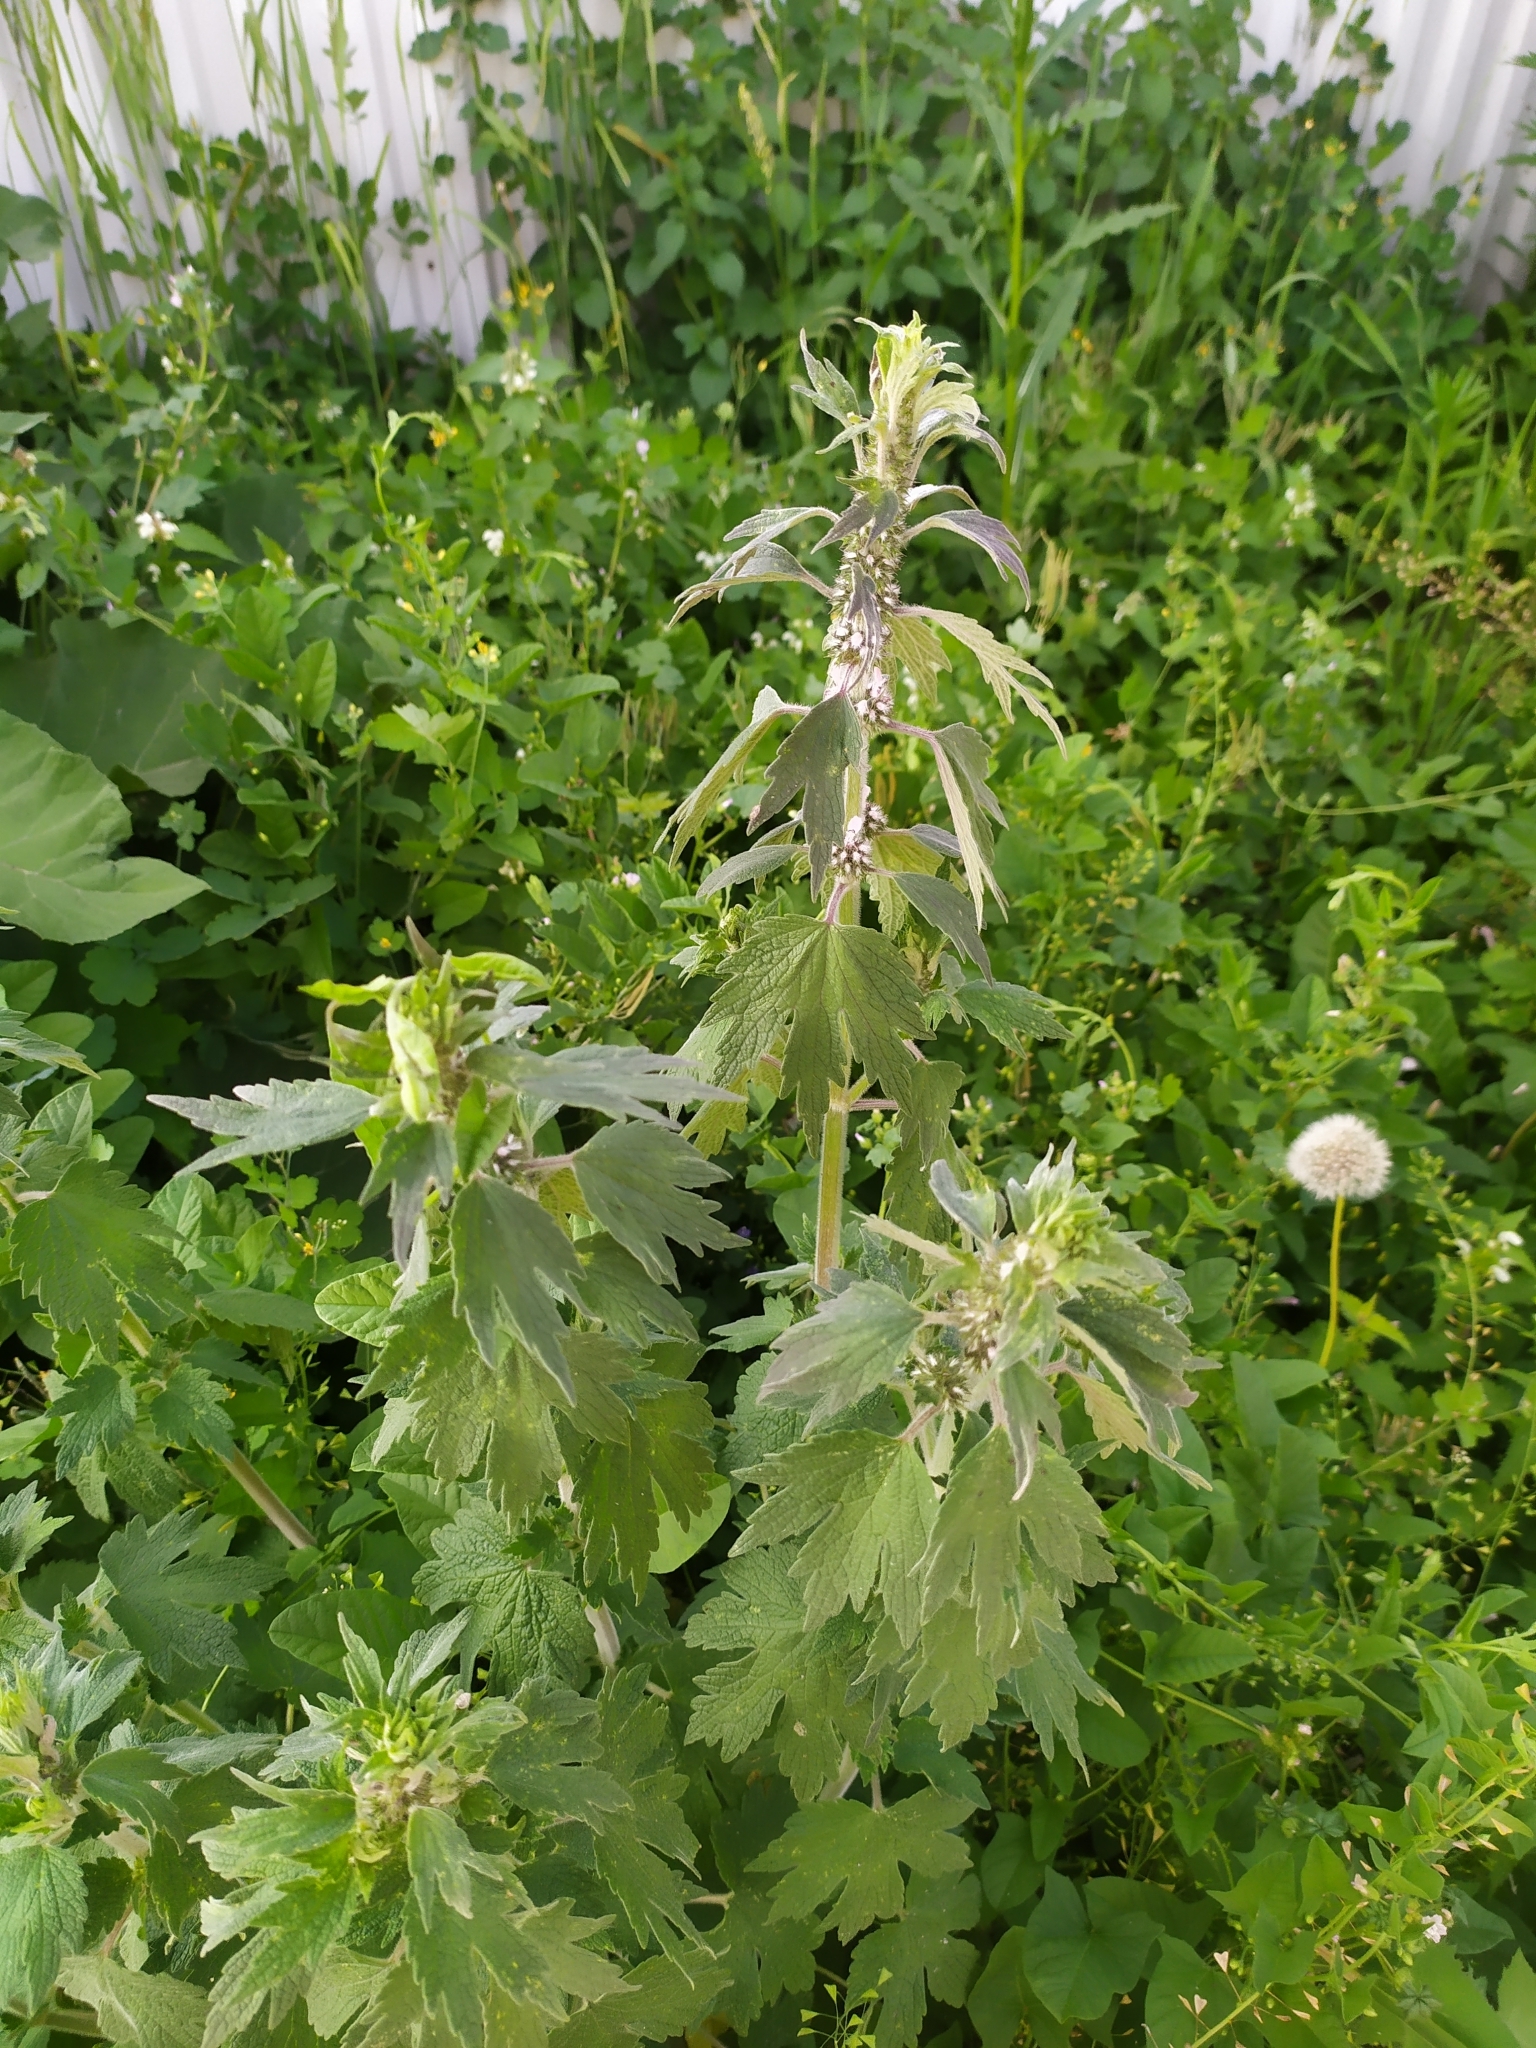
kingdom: Plantae
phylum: Tracheophyta
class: Magnoliopsida
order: Lamiales
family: Lamiaceae
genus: Leonurus
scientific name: Leonurus quinquelobatus
